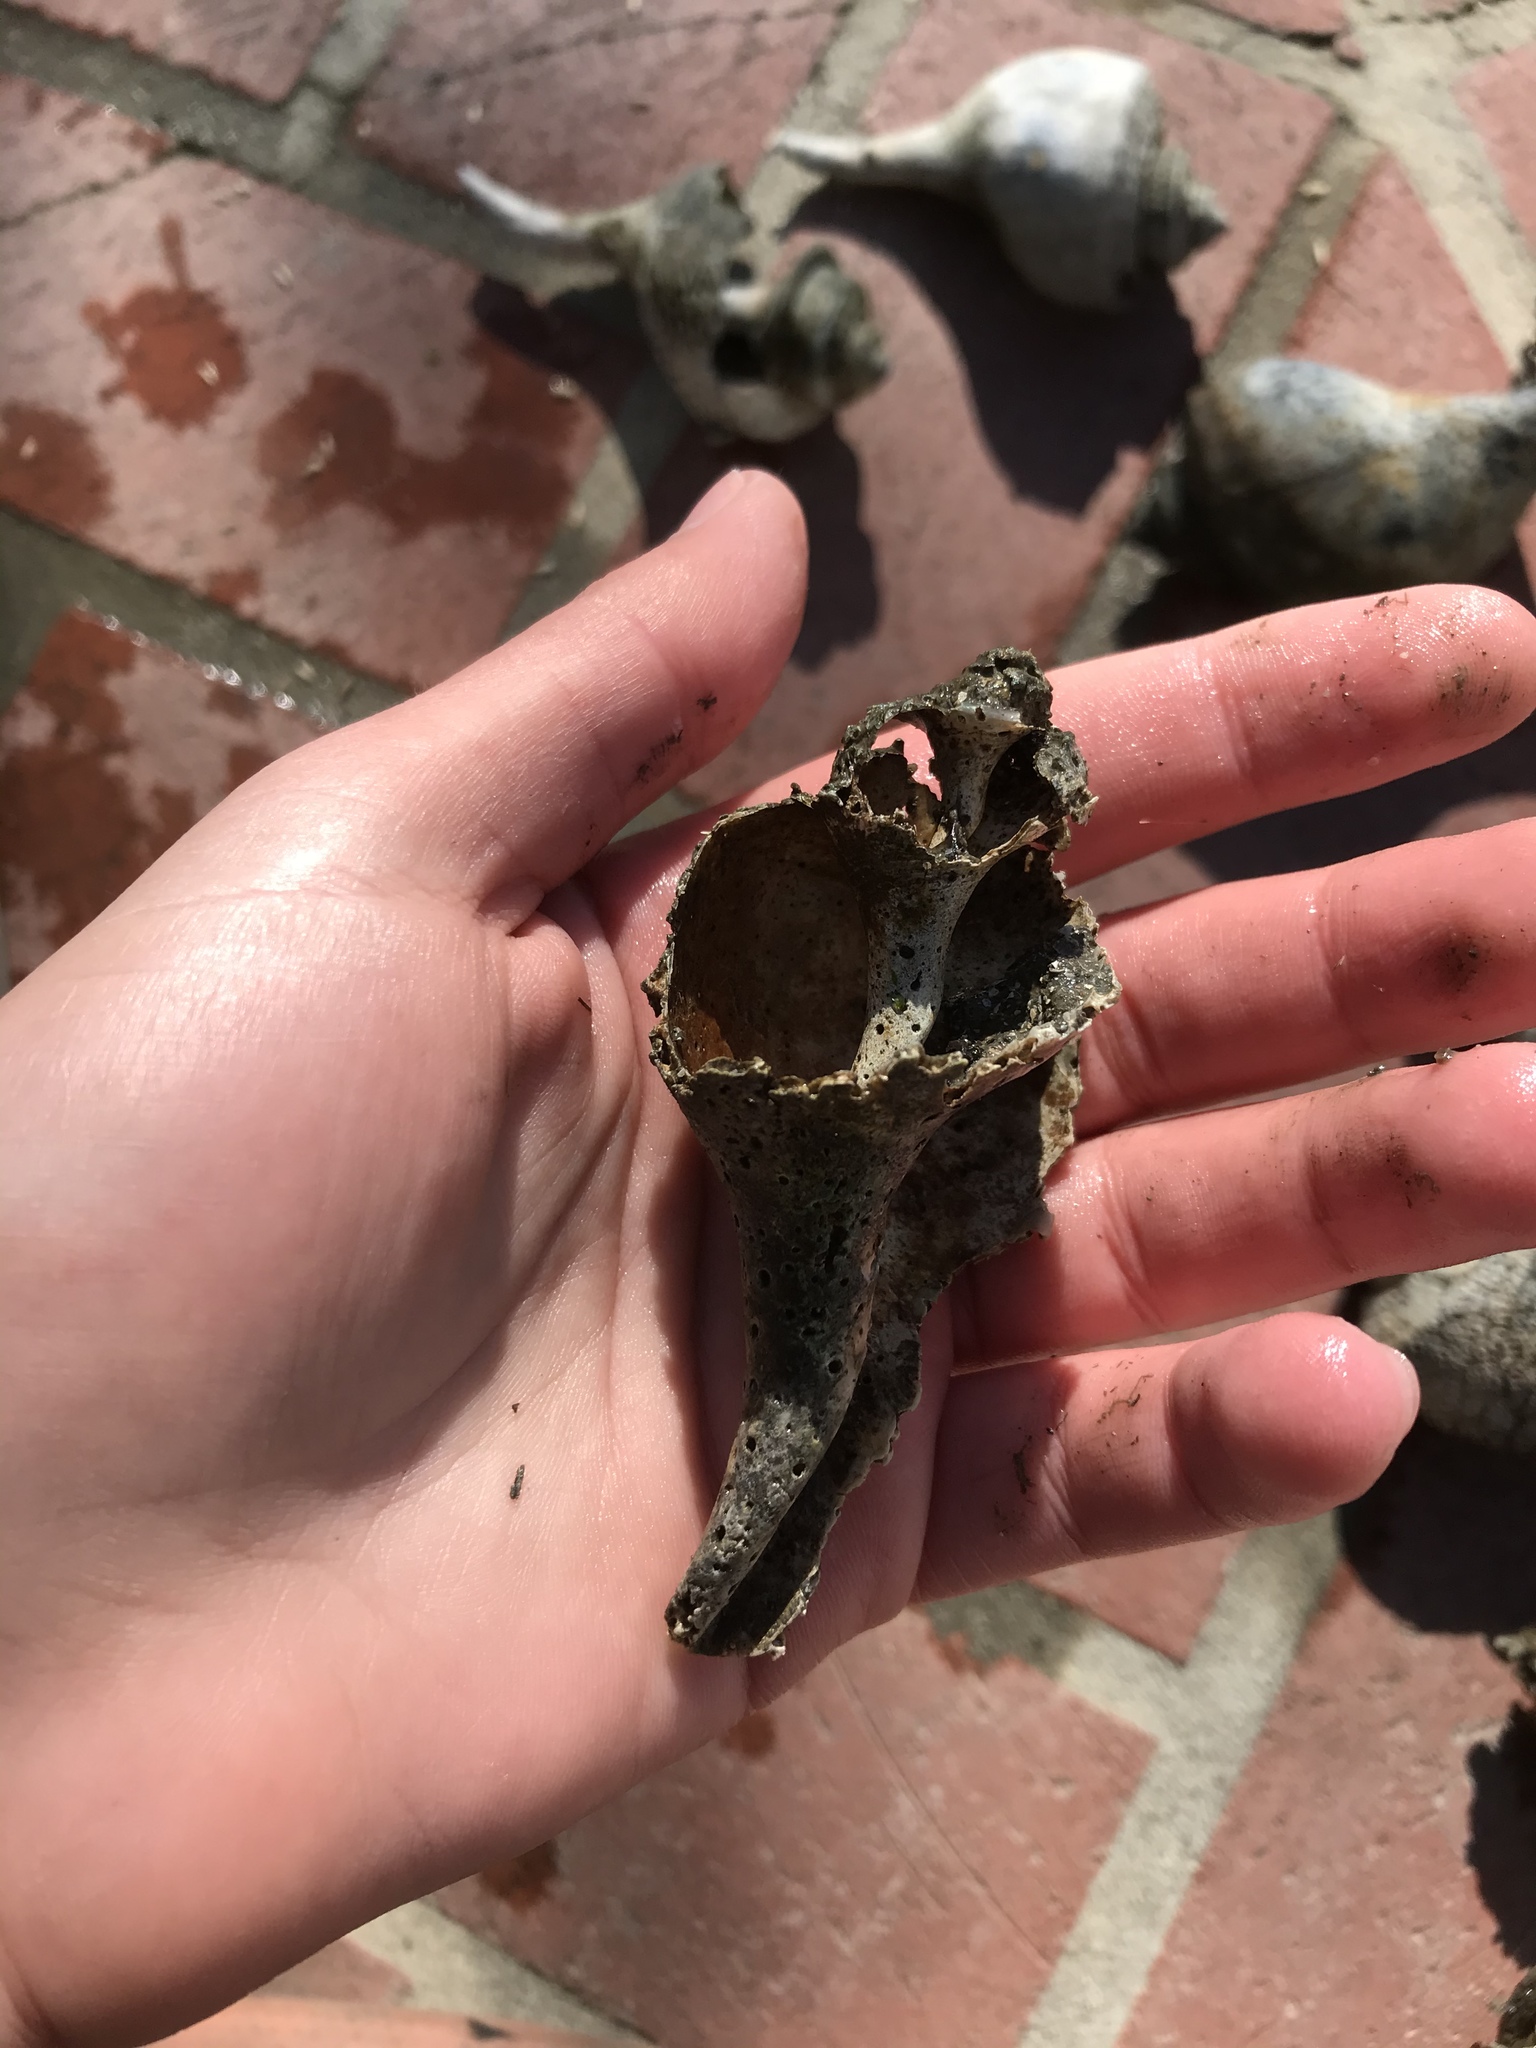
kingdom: Animalia
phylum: Mollusca
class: Gastropoda
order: Neogastropoda
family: Busyconidae
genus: Busycotypus
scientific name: Busycotypus canaliculatus
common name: Channeled whelk
